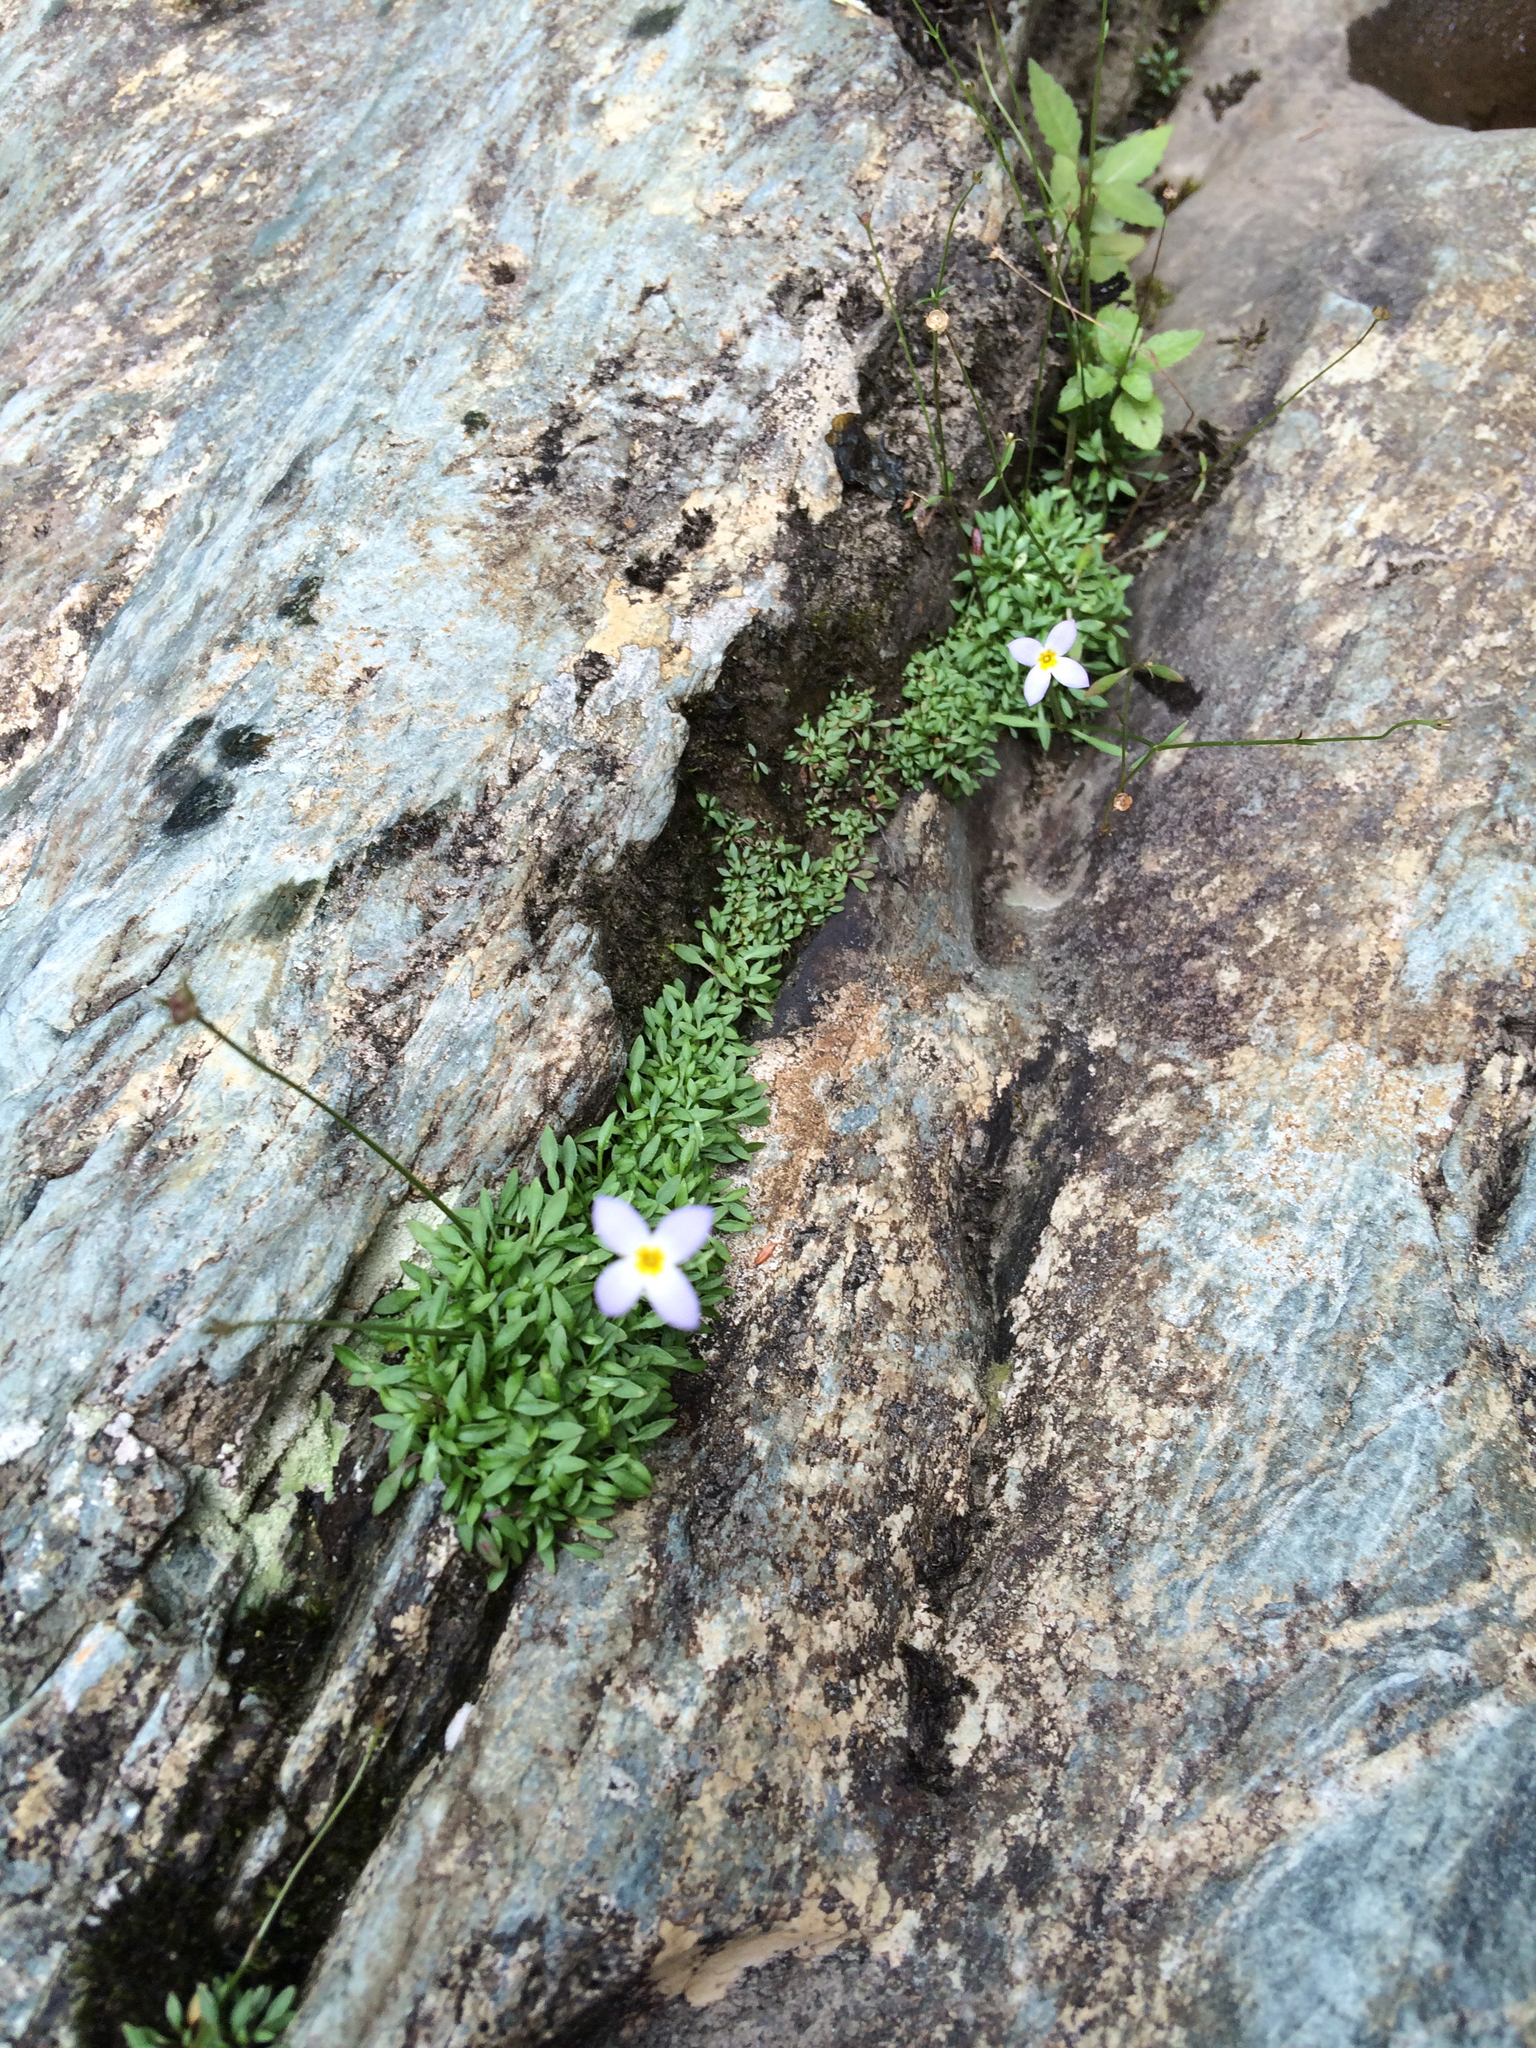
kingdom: Plantae
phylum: Tracheophyta
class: Magnoliopsida
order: Gentianales
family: Rubiaceae
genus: Houstonia
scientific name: Houstonia caerulea
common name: Bluets
